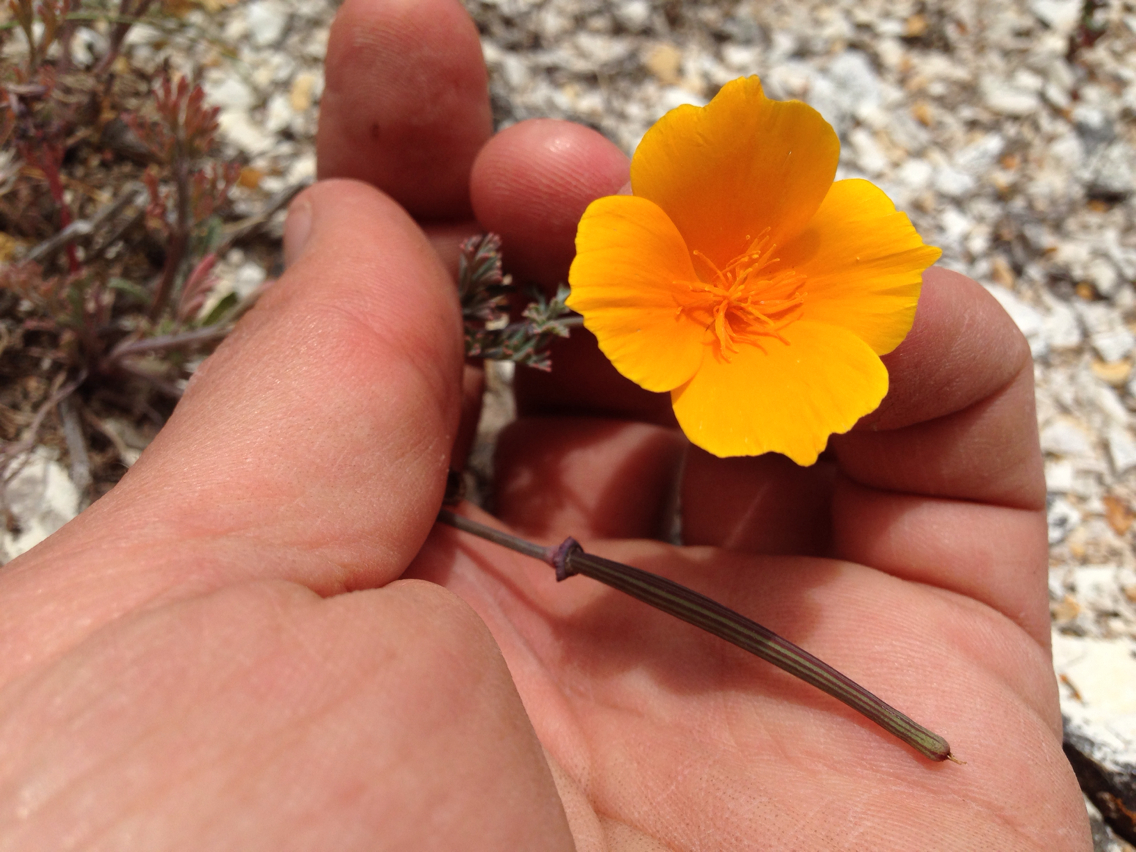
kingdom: Plantae
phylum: Tracheophyta
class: Magnoliopsida
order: Ranunculales
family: Papaveraceae
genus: Eschscholzia
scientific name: Eschscholzia californica
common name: California poppy
